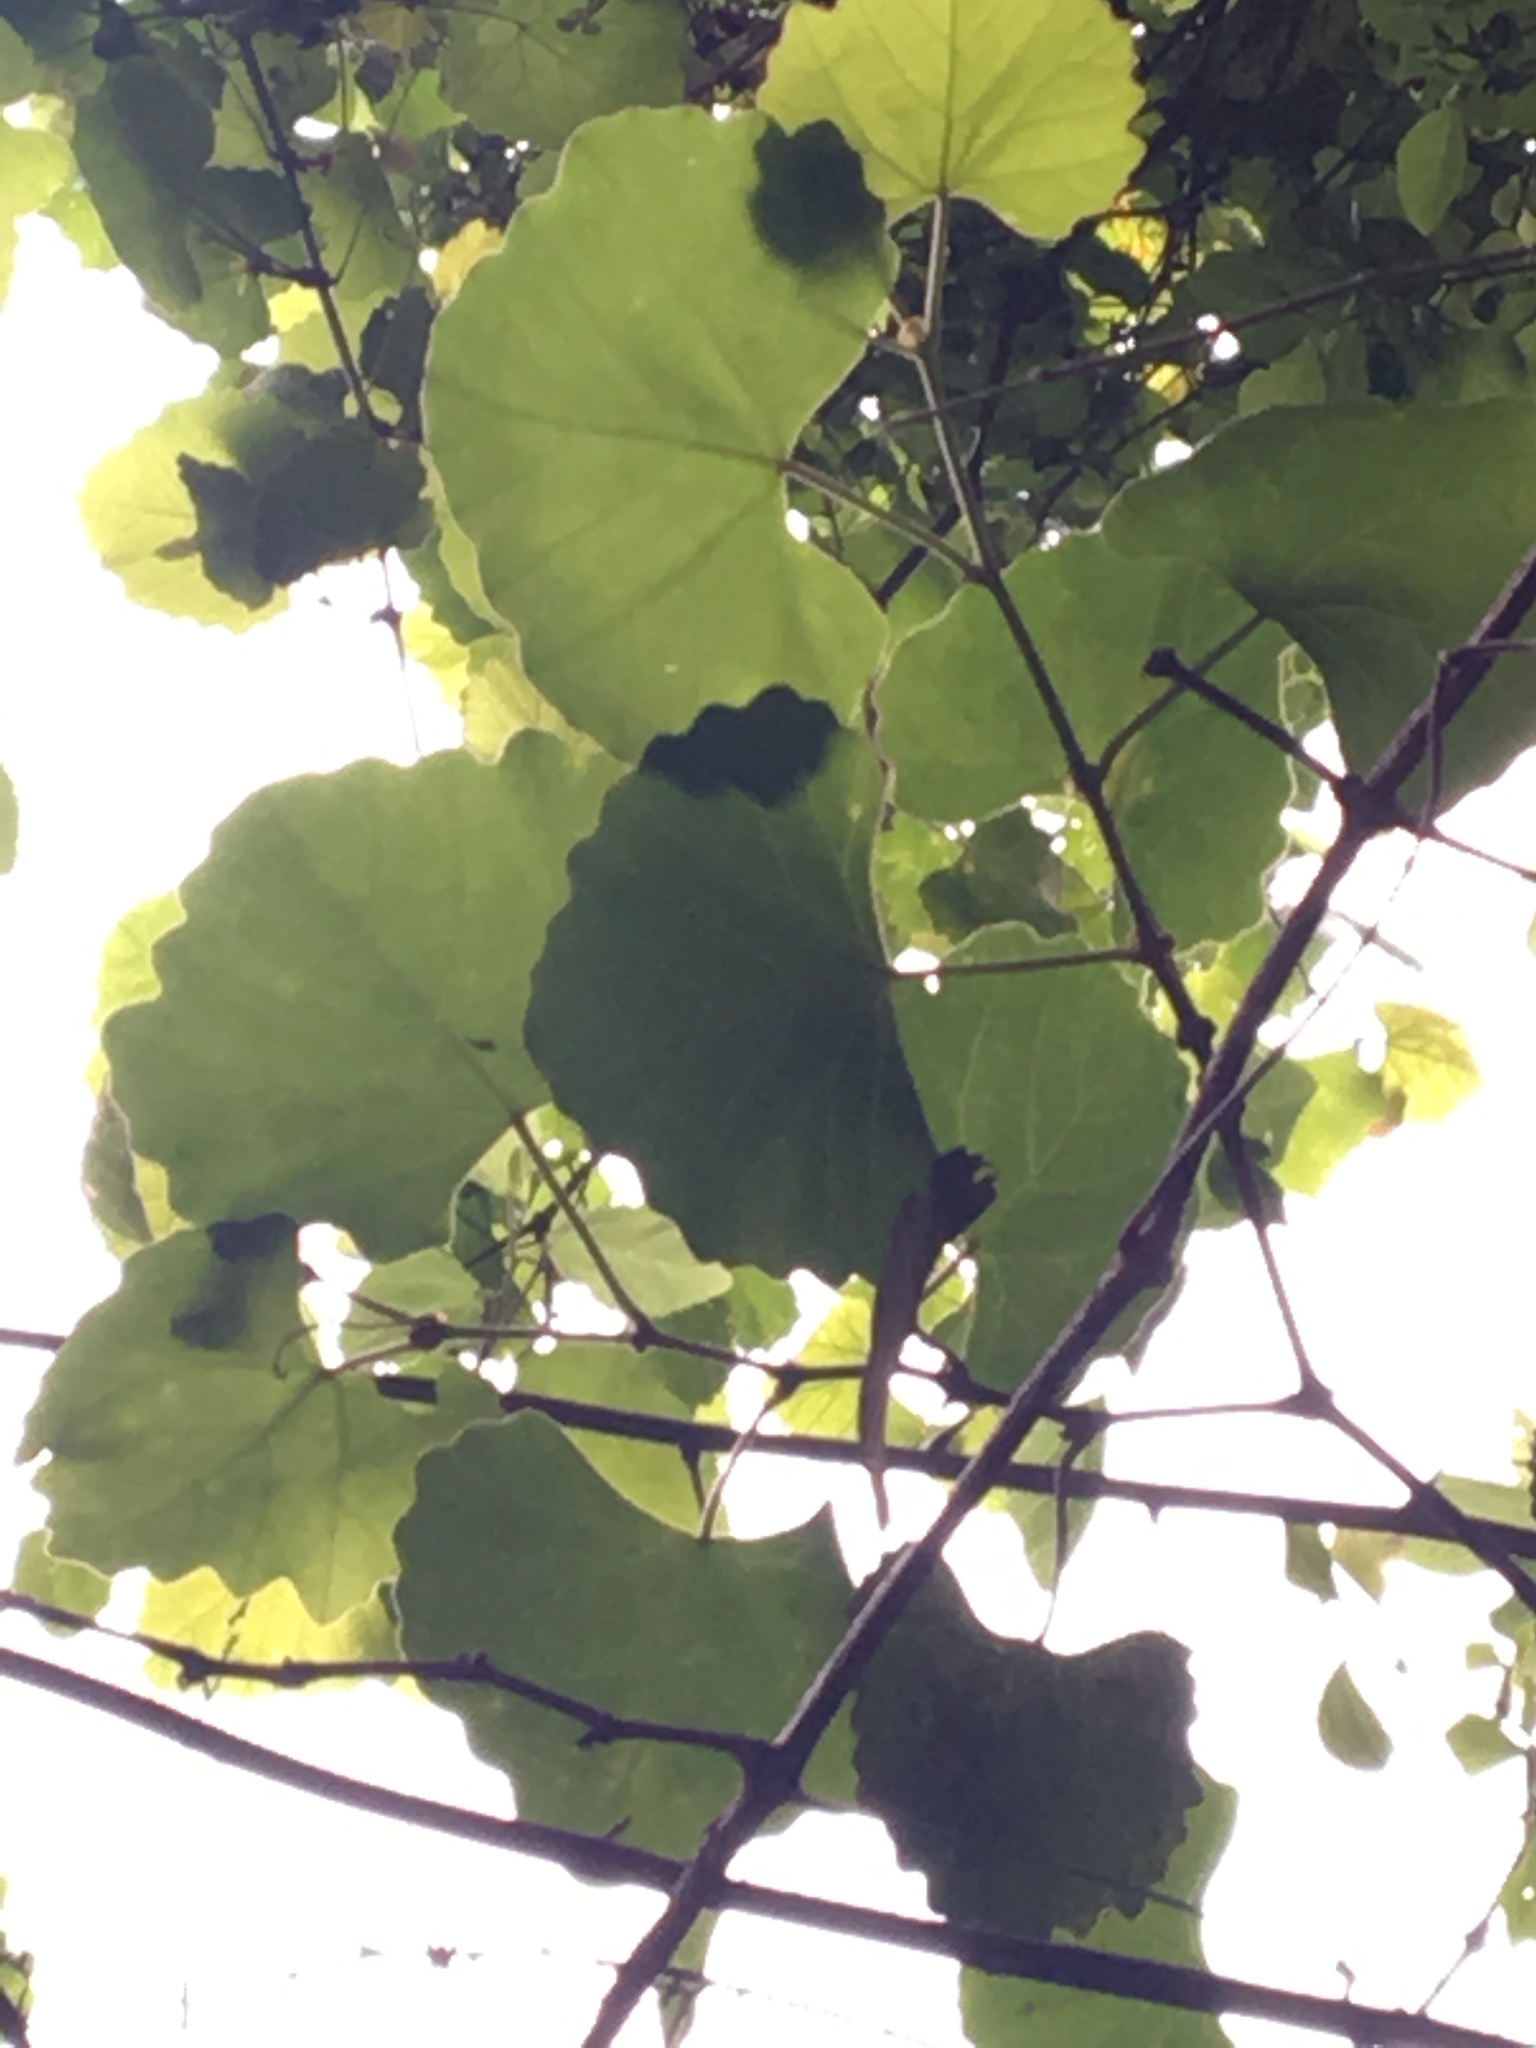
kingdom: Plantae
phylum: Tracheophyta
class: Magnoliopsida
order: Vitales
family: Vitaceae
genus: Rhoicissus
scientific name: Rhoicissus tomentosa
